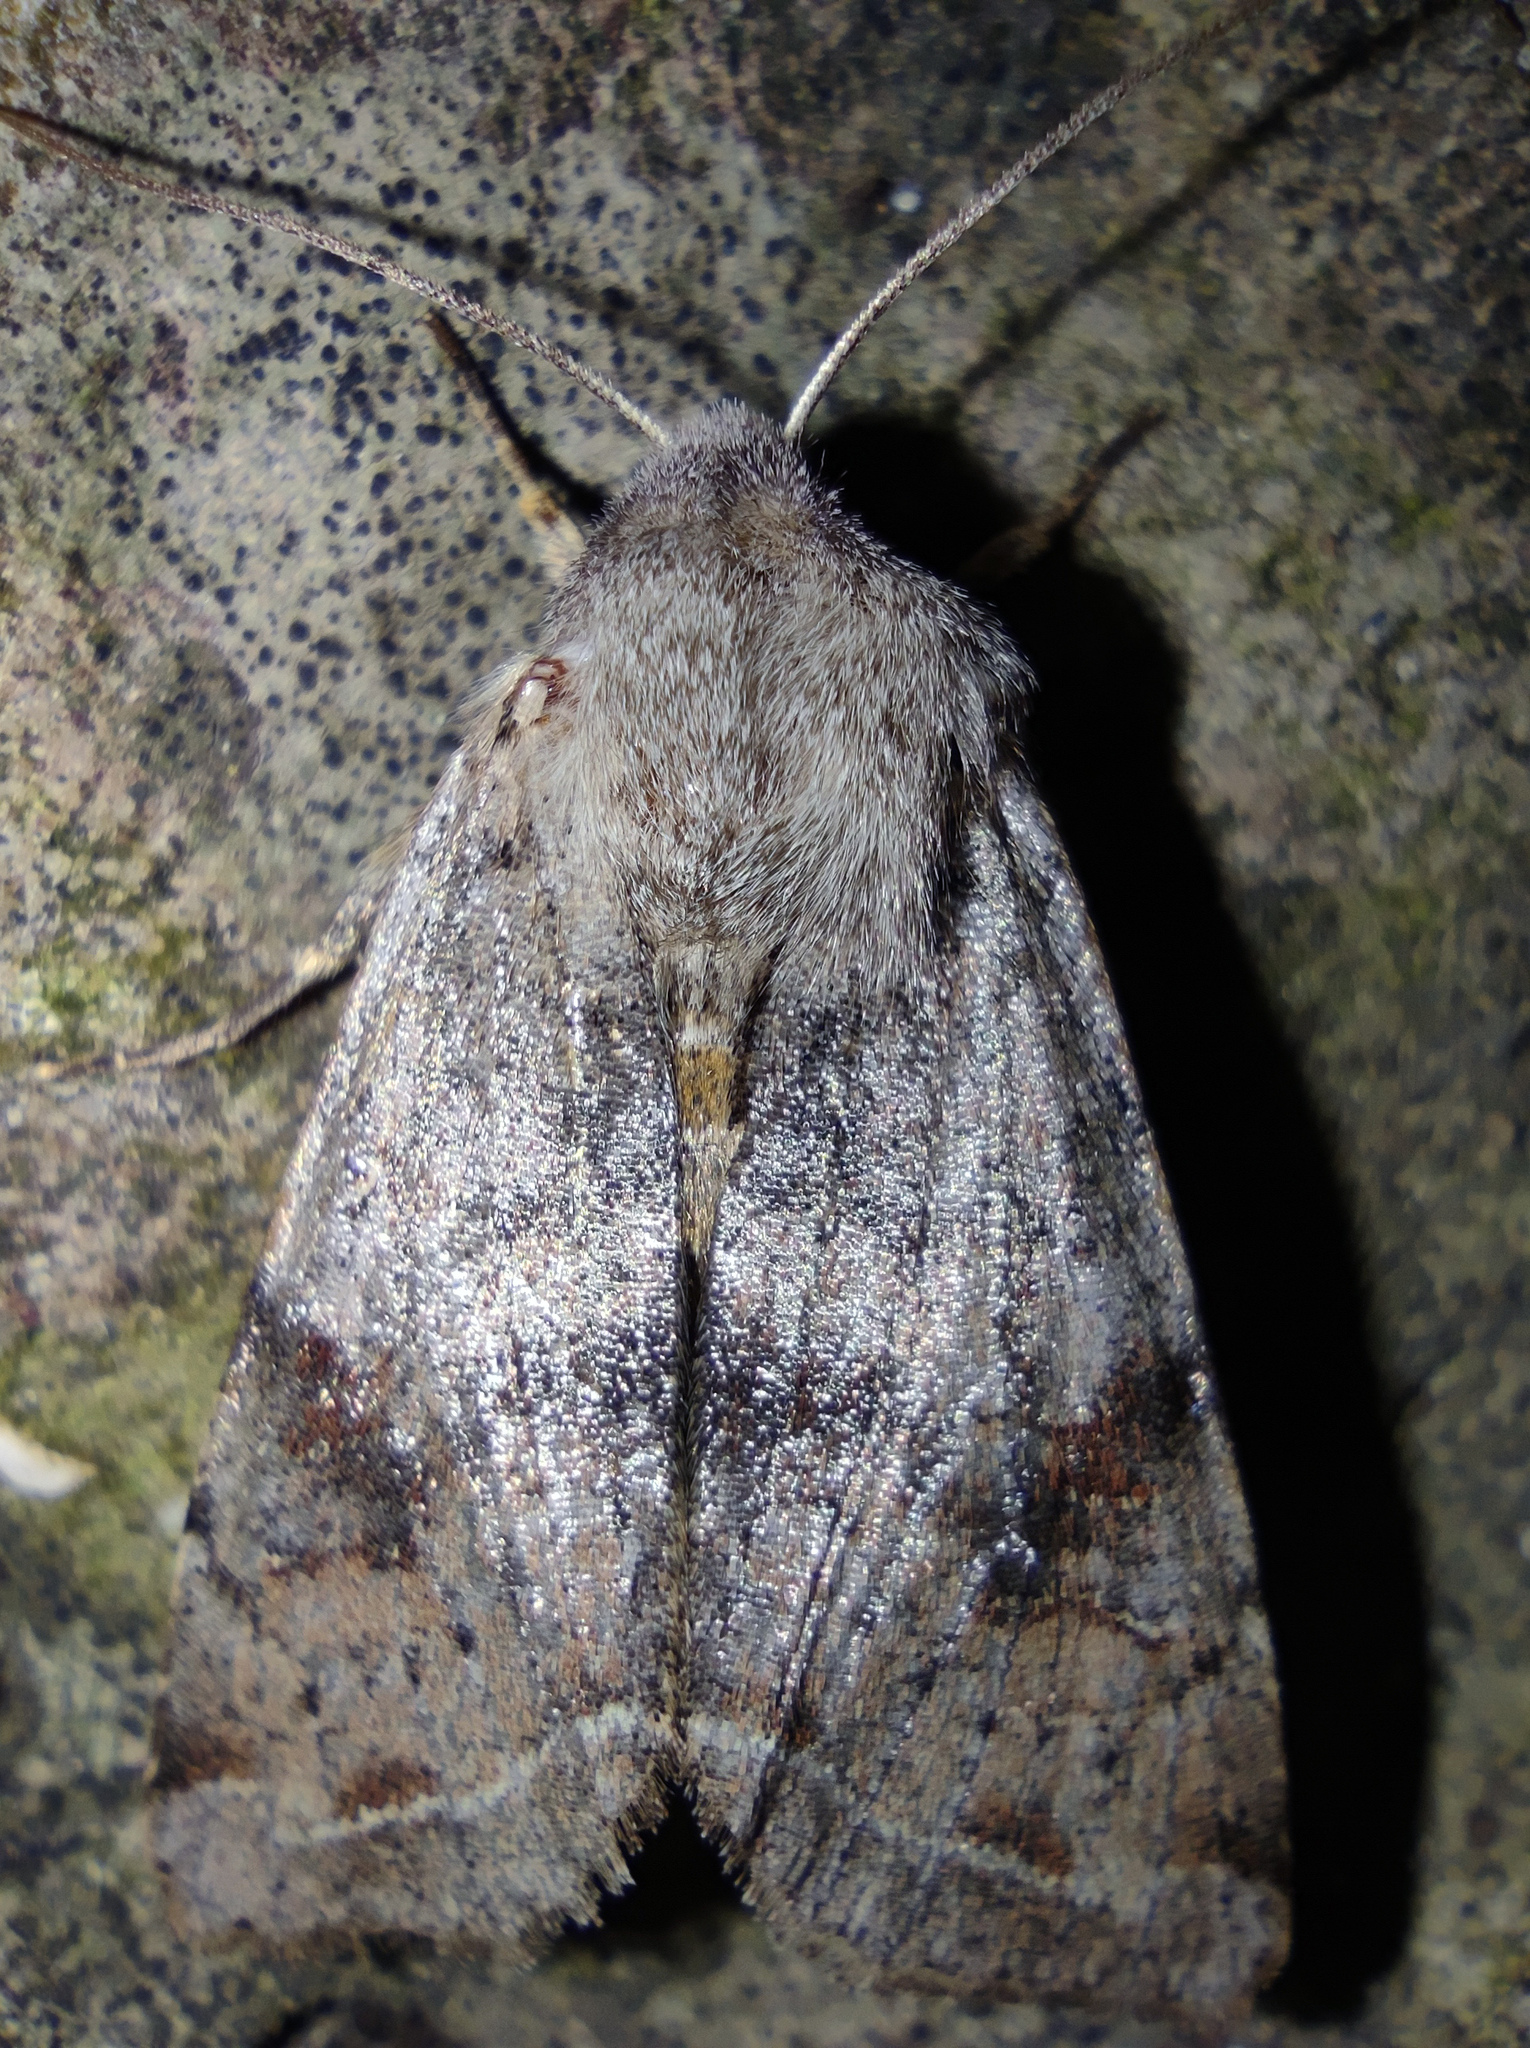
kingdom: Animalia
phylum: Arthropoda
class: Insecta
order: Lepidoptera
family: Noctuidae
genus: Orthosia
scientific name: Orthosia incerta
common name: Clouded drab
